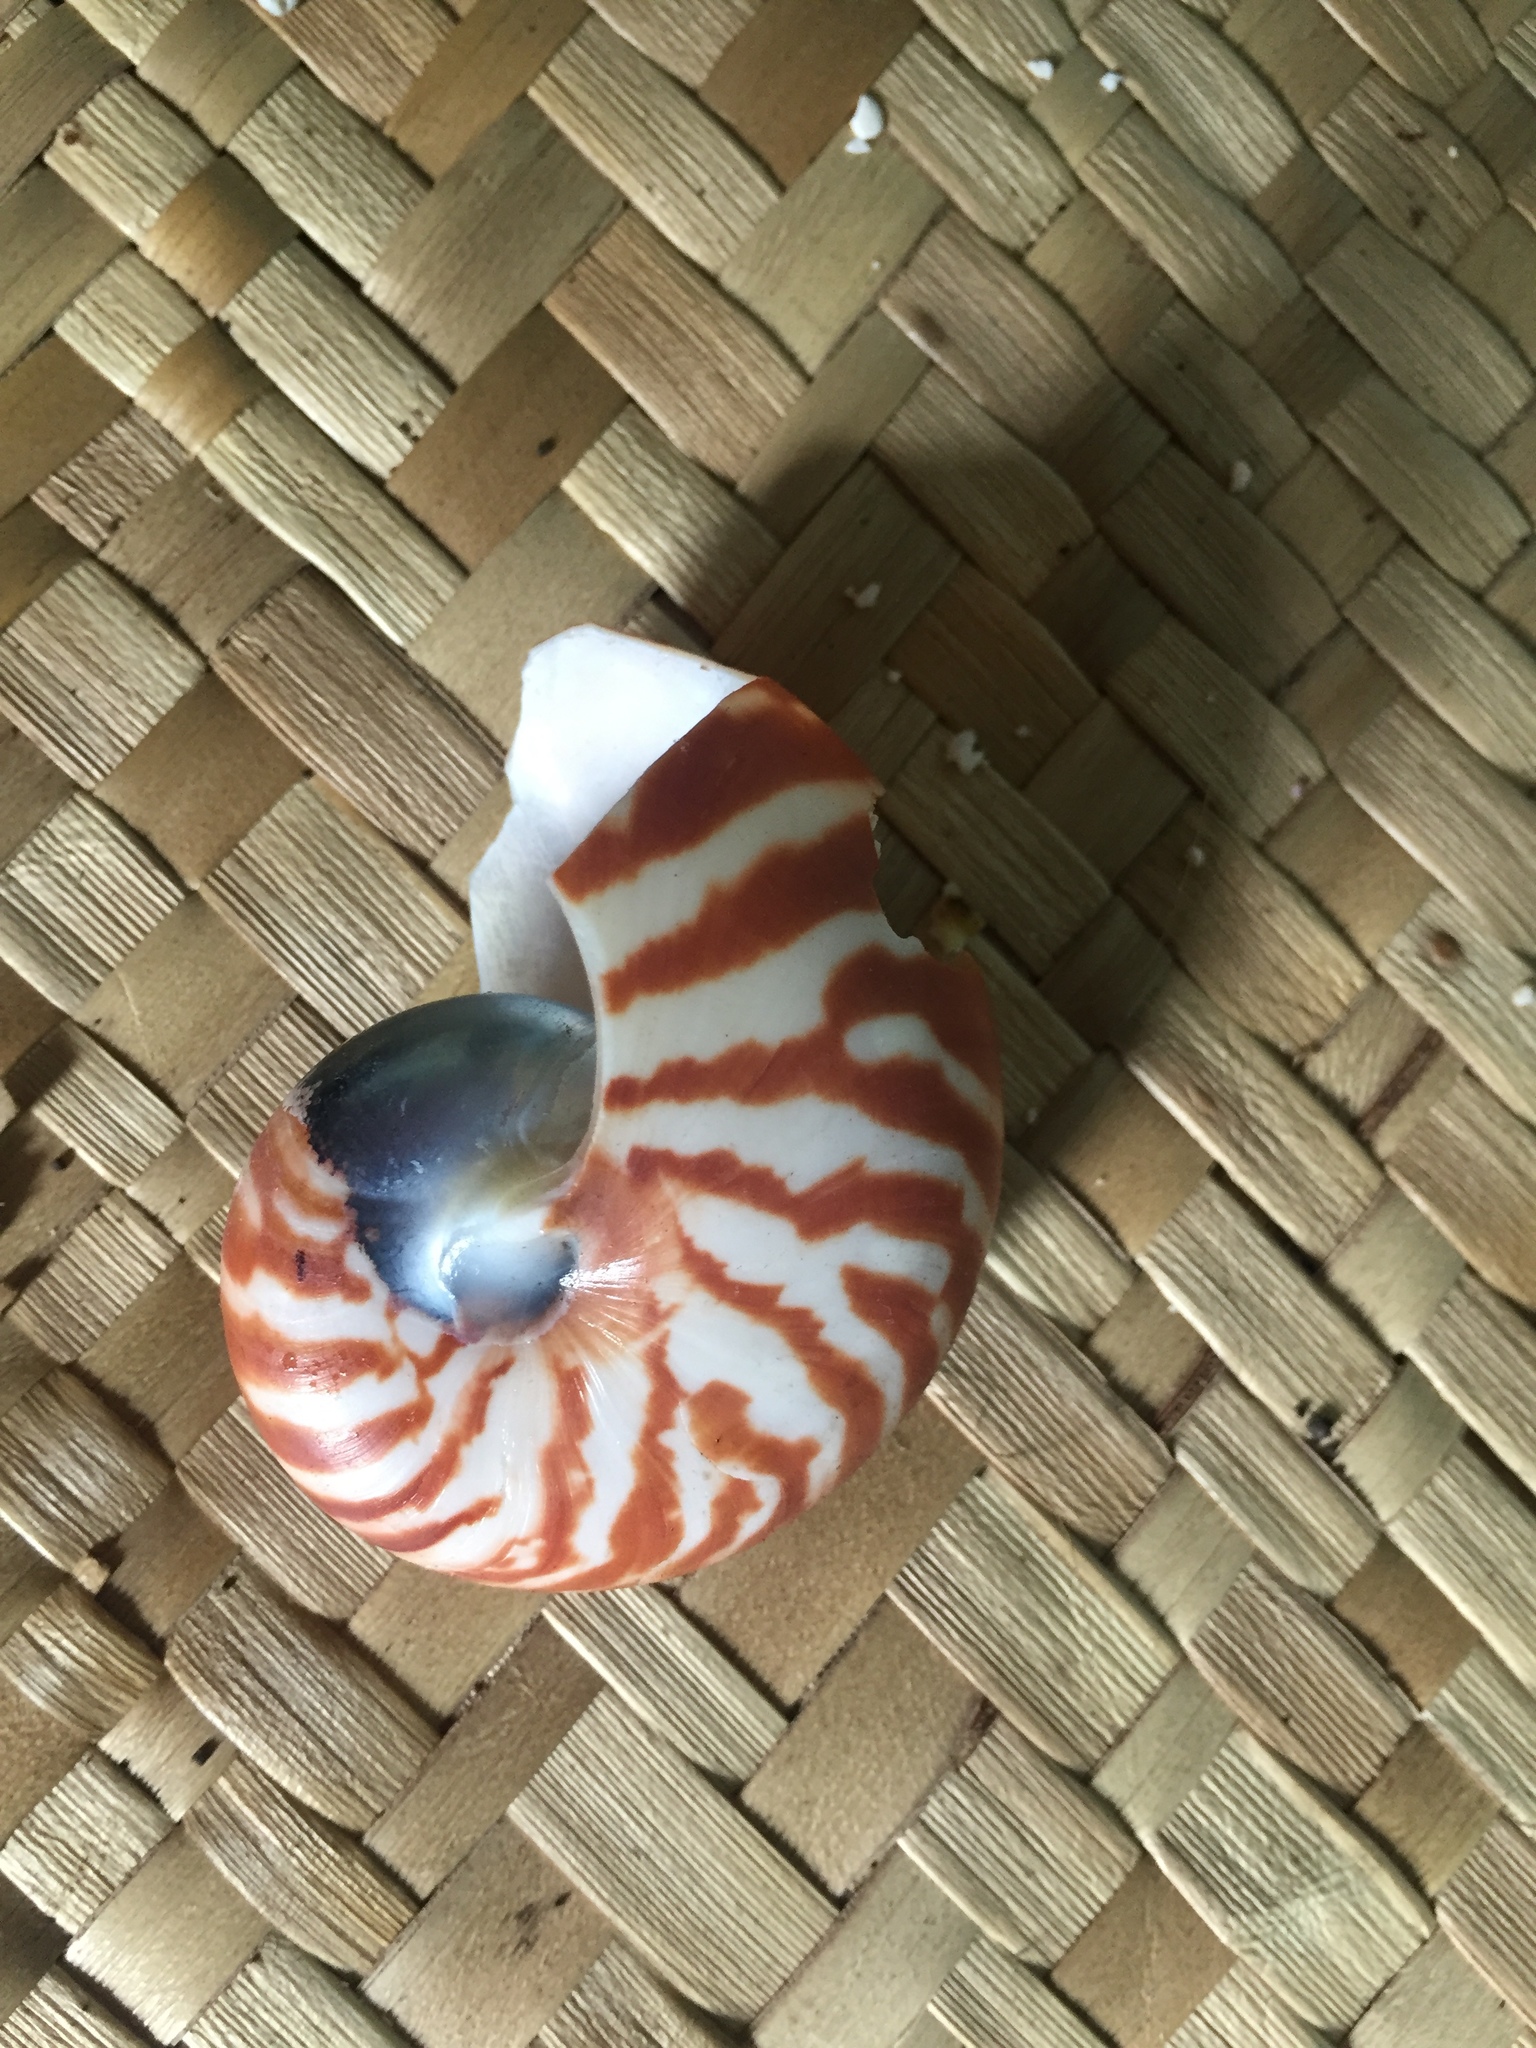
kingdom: Animalia
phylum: Mollusca
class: Cephalopoda
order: Nautilida
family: Nautilidae
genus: Nautilus
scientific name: Nautilus vanuatuensis
